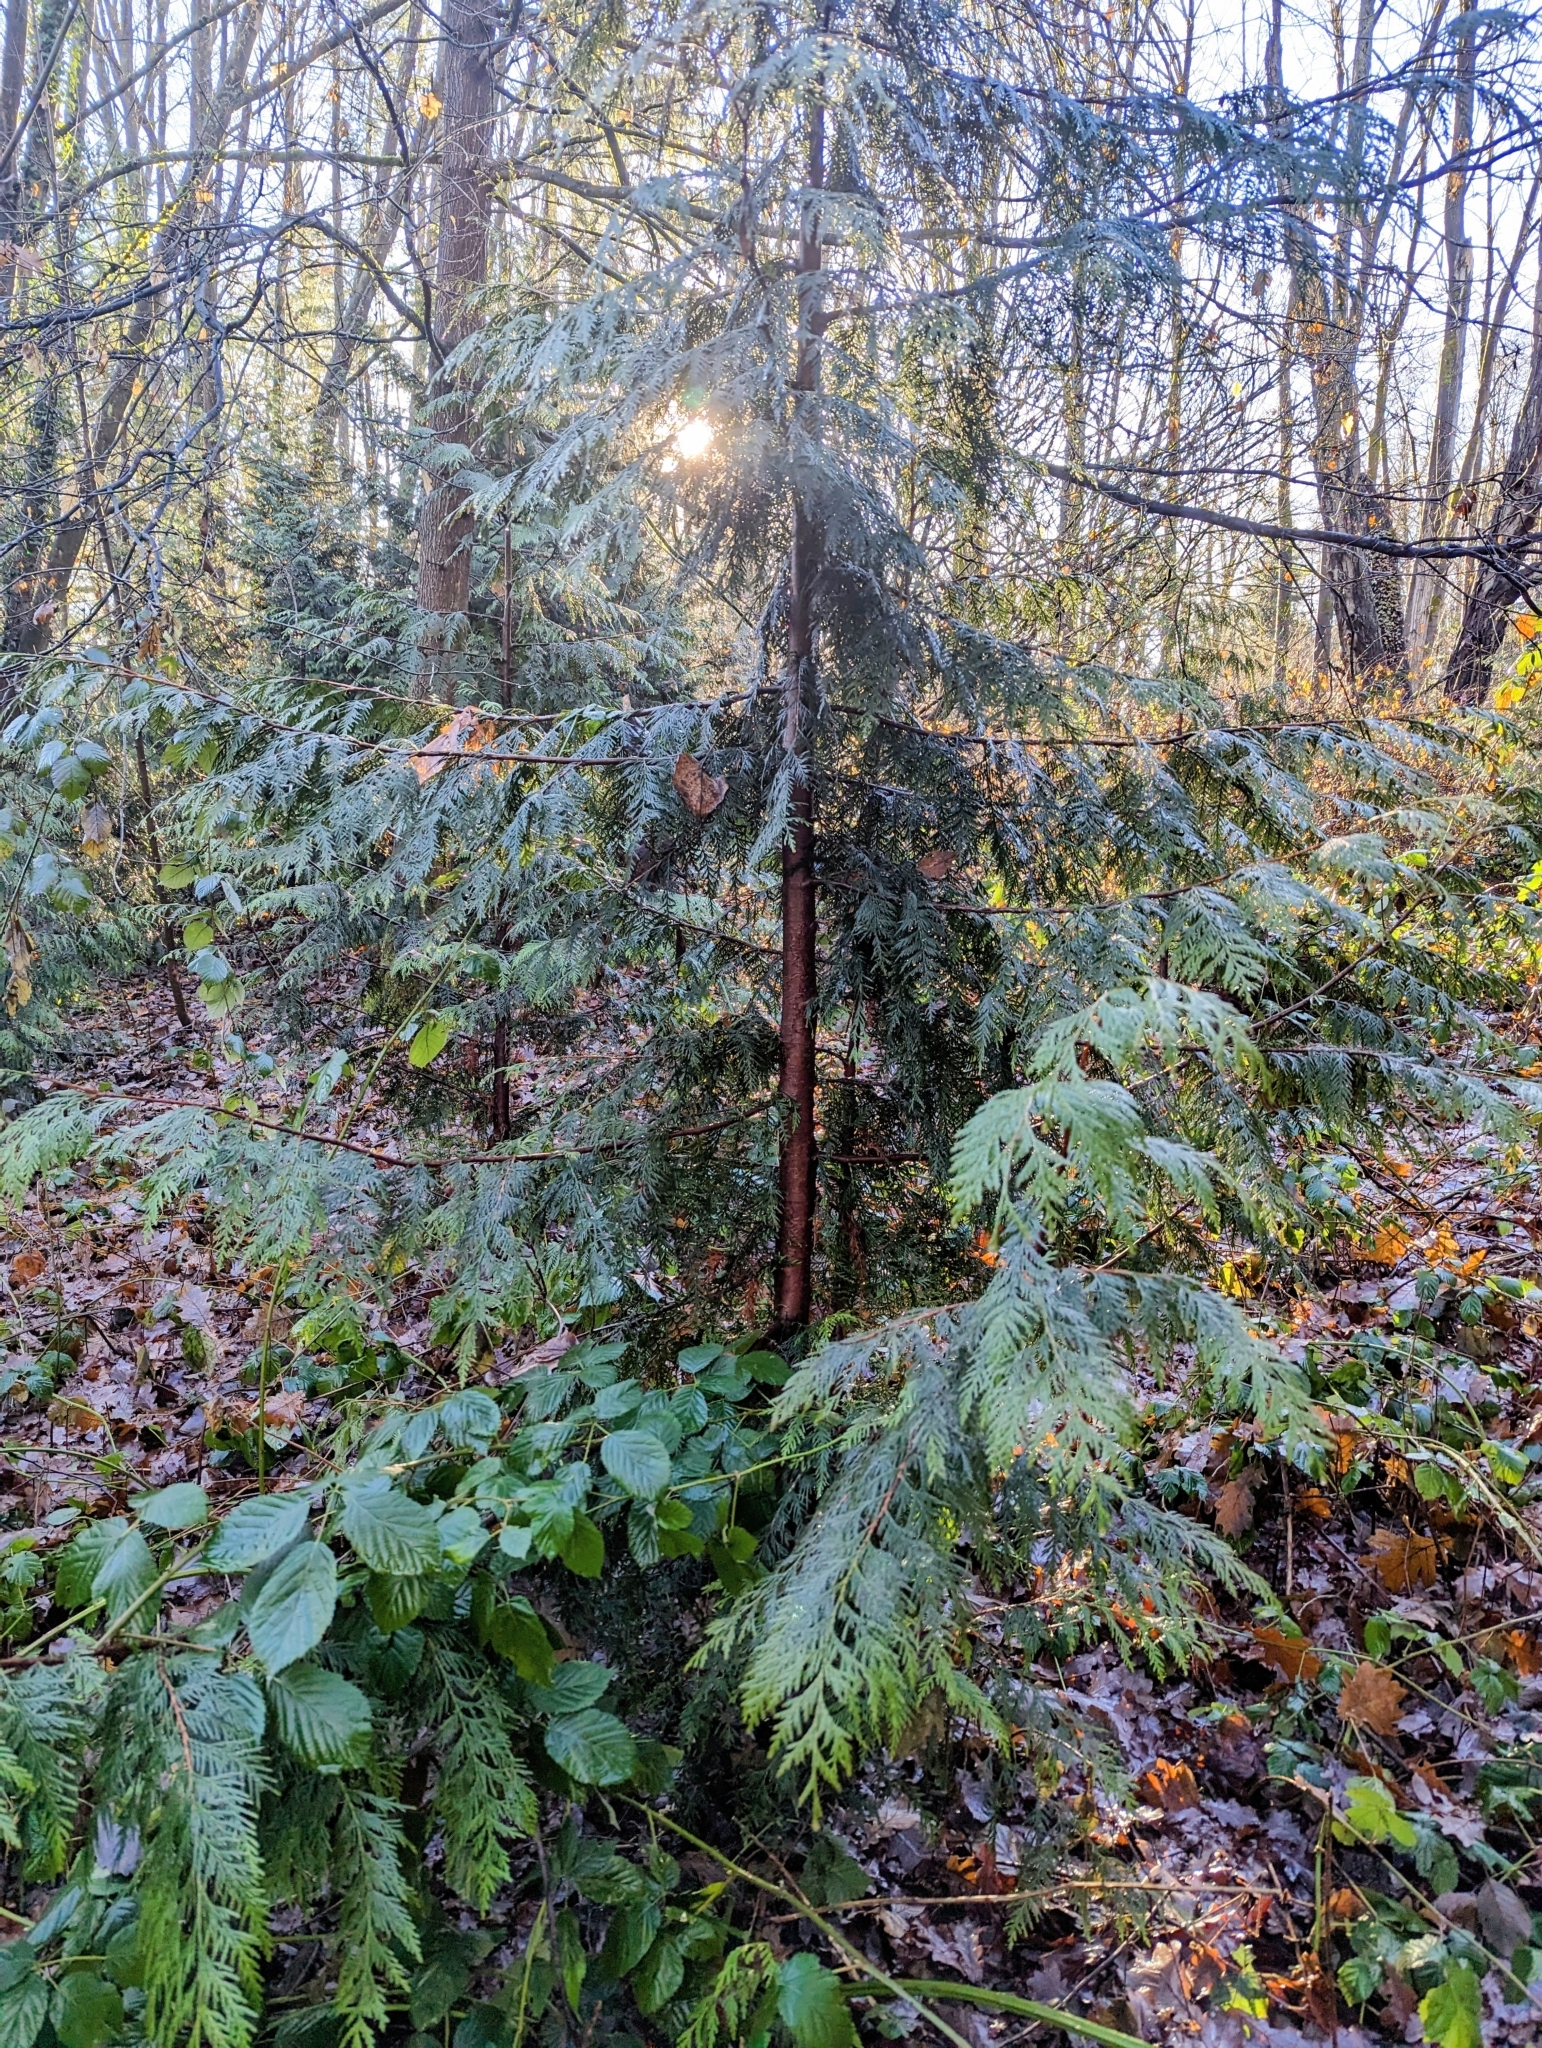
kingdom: Plantae
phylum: Tracheophyta
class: Pinopsida
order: Pinales
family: Cupressaceae
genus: Thuja
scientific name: Thuja plicata
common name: Western red-cedar
